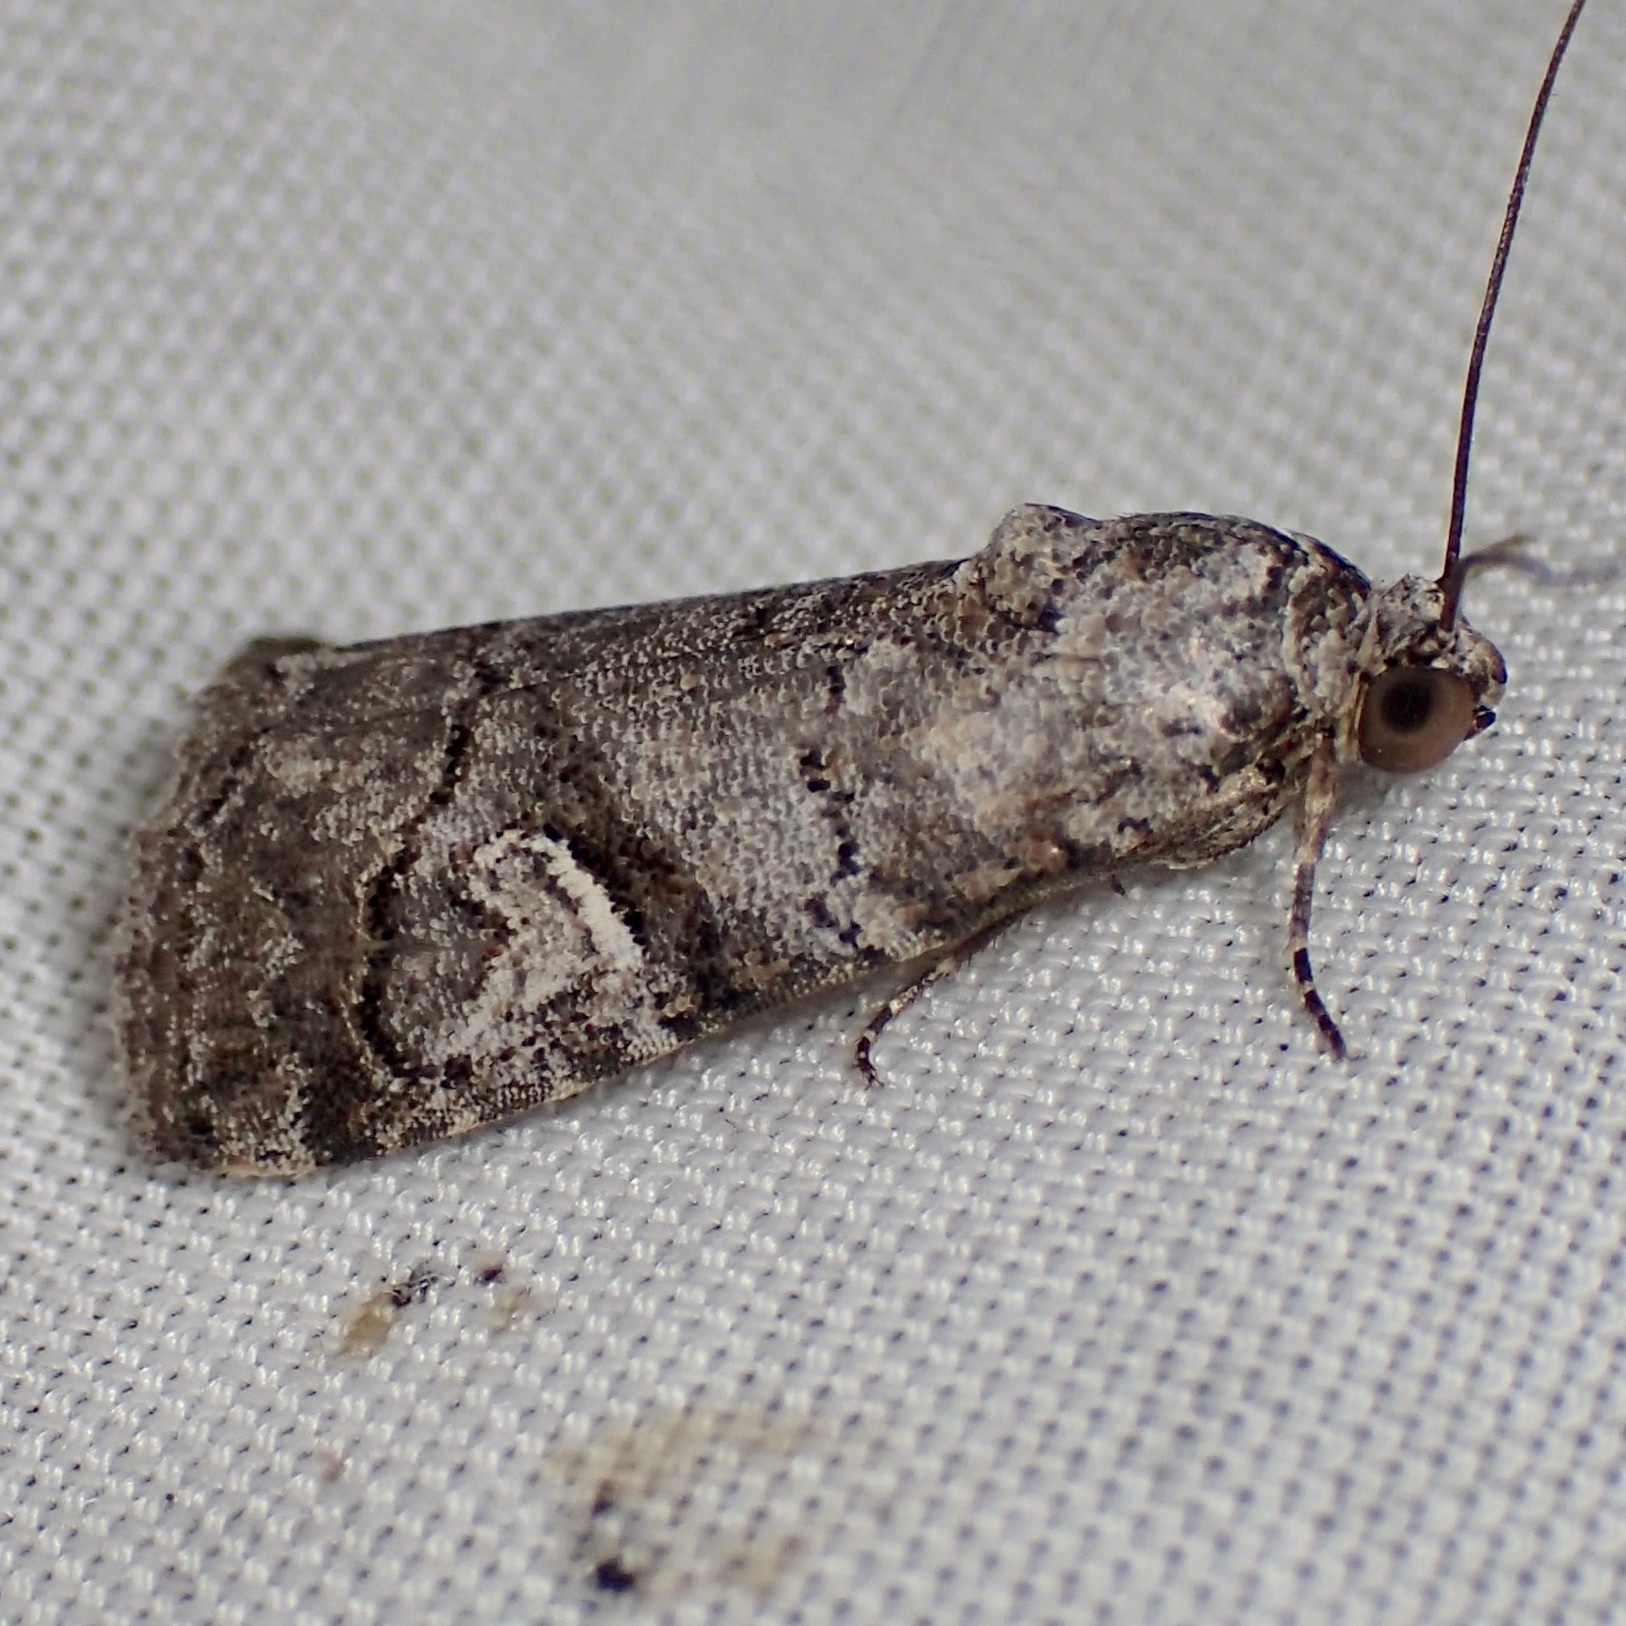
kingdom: Animalia
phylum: Arthropoda
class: Insecta
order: Lepidoptera
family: Noctuidae
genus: Metaponpneumata
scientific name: Metaponpneumata rogenhoferi
